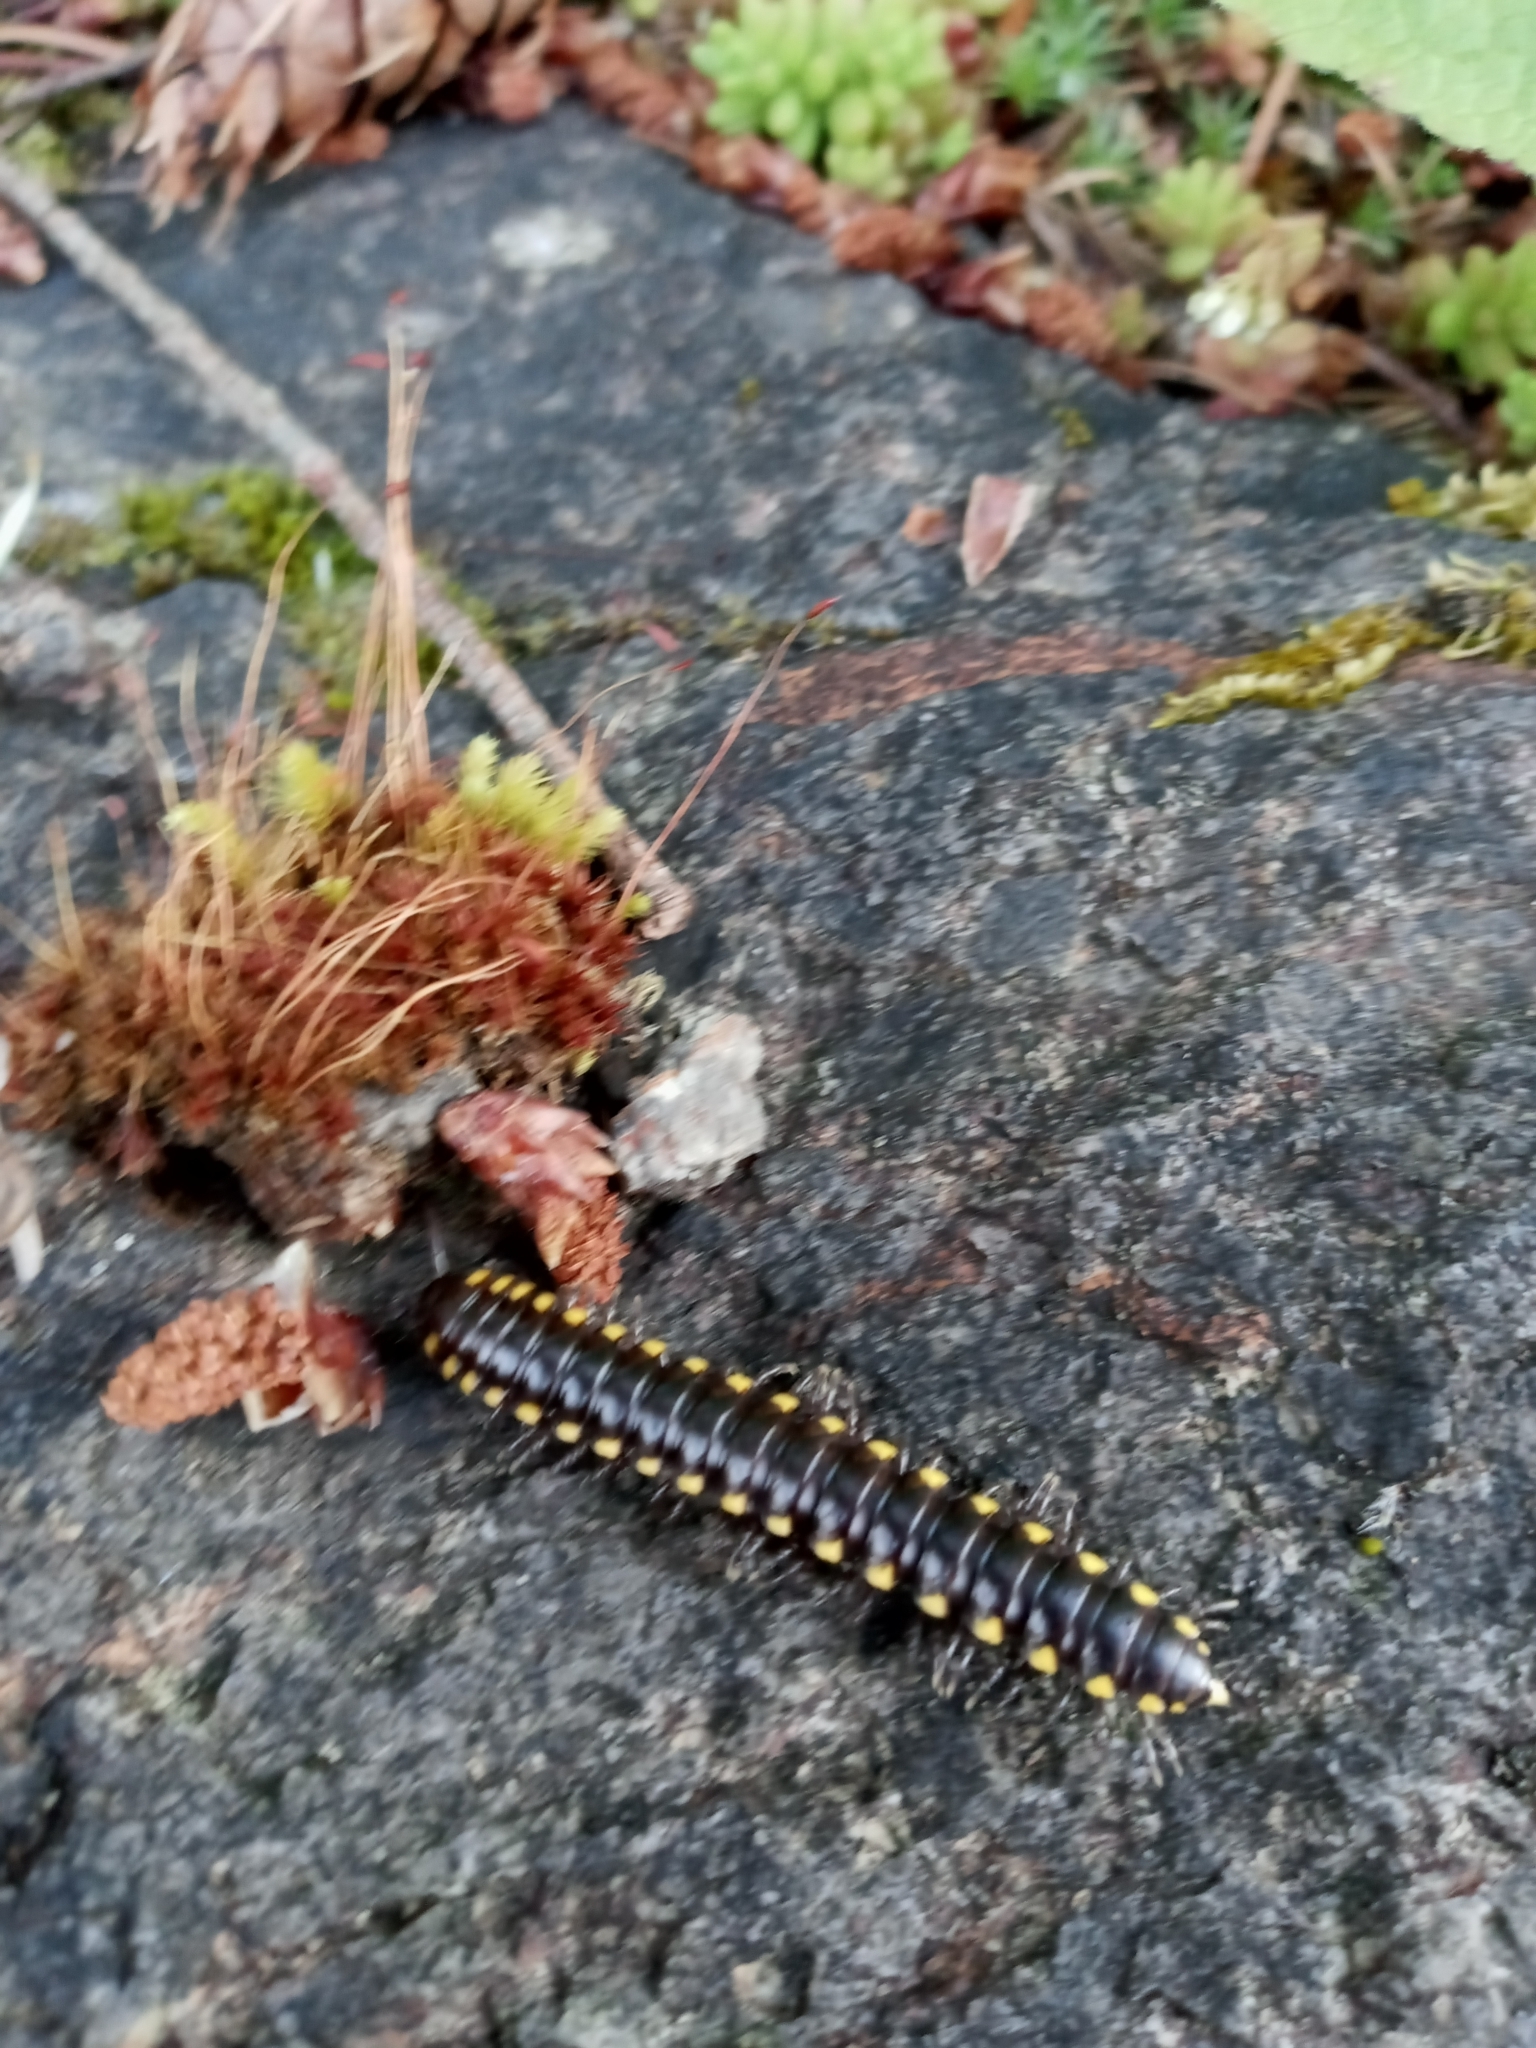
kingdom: Animalia
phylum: Arthropoda
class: Diplopoda
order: Polydesmida
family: Xystodesmidae
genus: Harpaphe
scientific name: Harpaphe haydeniana
